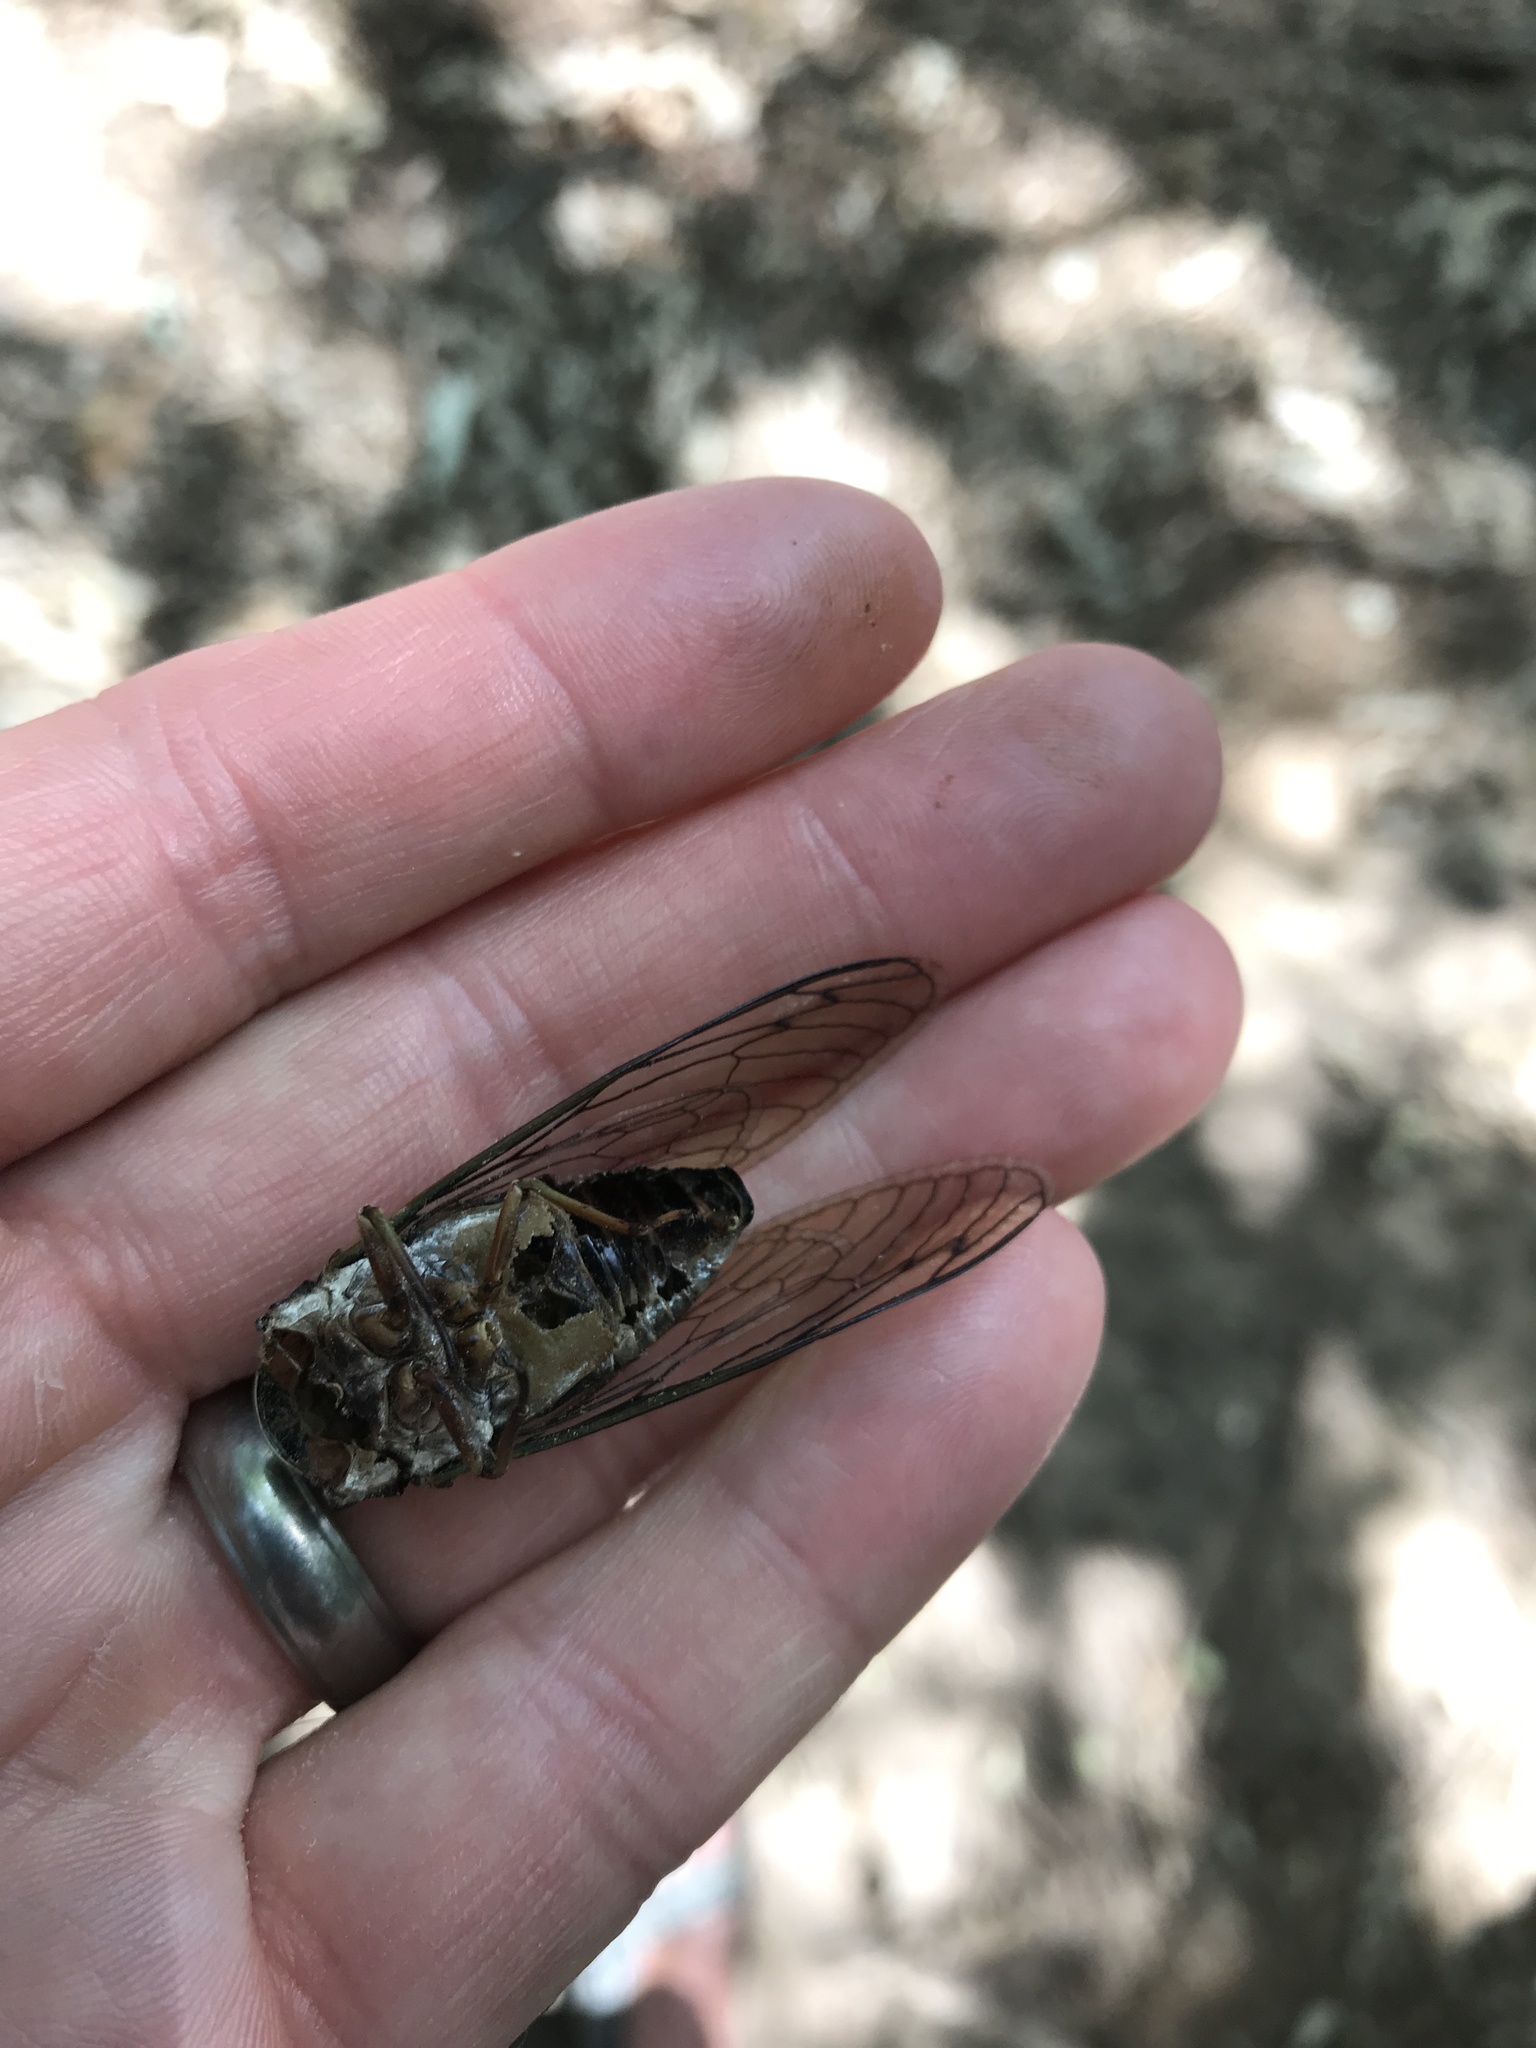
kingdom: Animalia
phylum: Arthropoda
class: Insecta
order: Hemiptera
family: Cicadidae
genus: Neotibicen
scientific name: Neotibicen lyricen
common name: Lyric cicada
